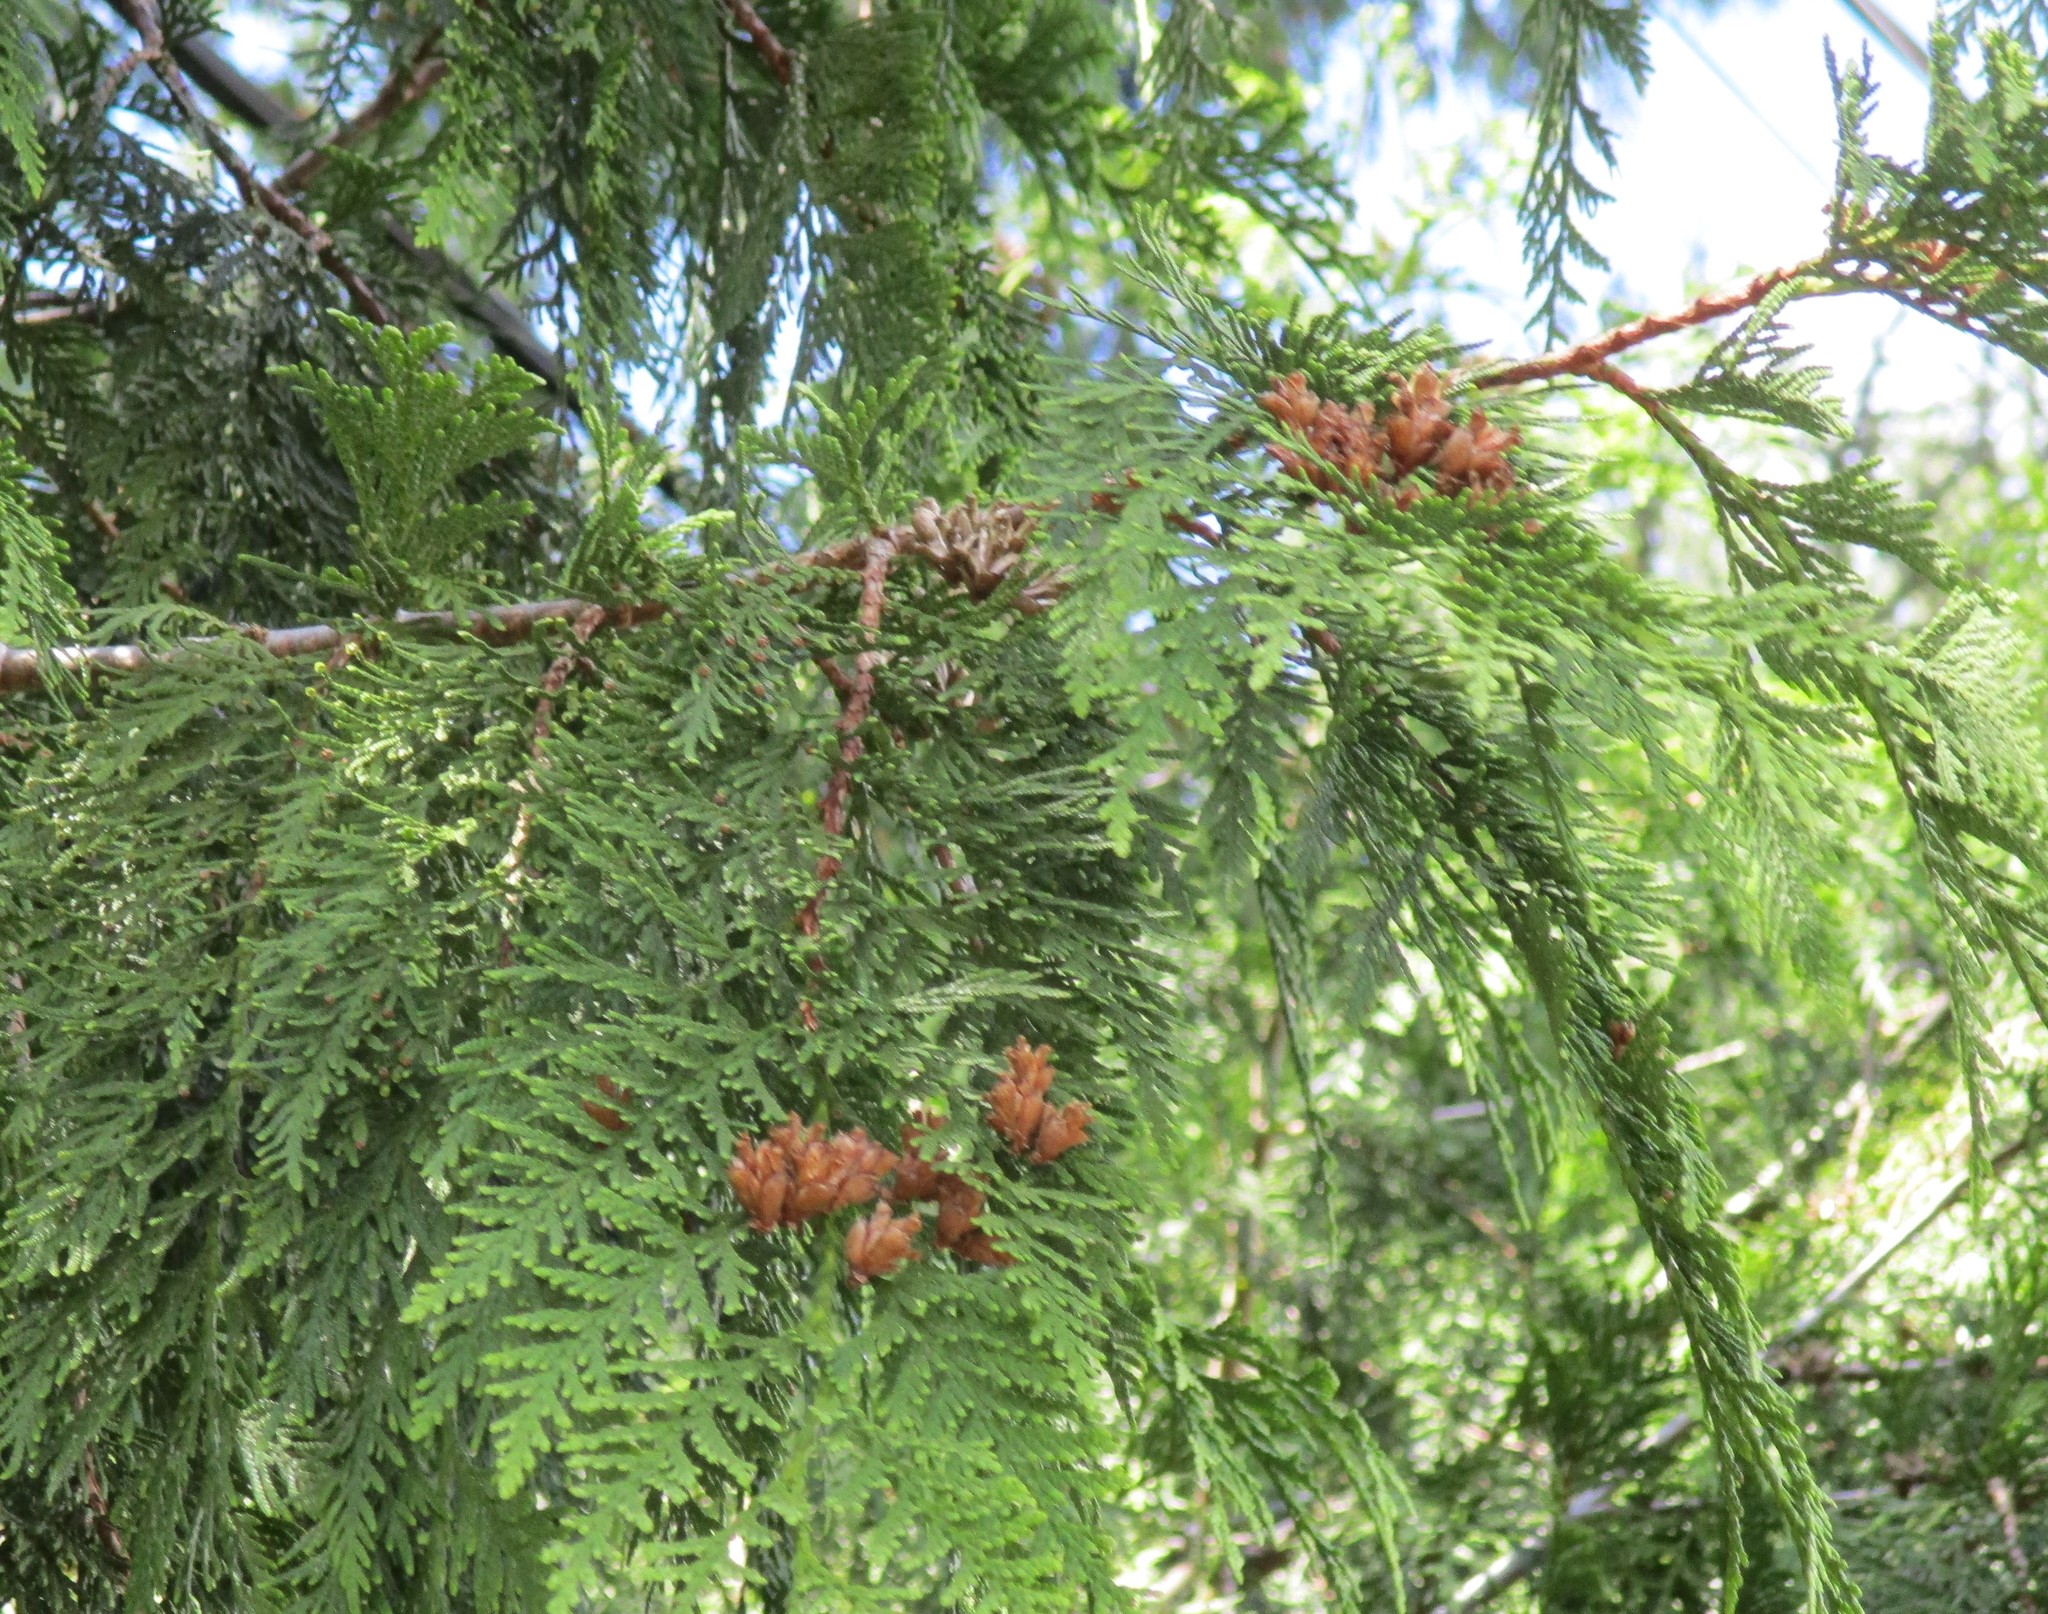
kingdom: Plantae
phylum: Tracheophyta
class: Pinopsida
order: Pinales
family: Cupressaceae
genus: Thuja
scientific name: Thuja plicata
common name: Western red-cedar
